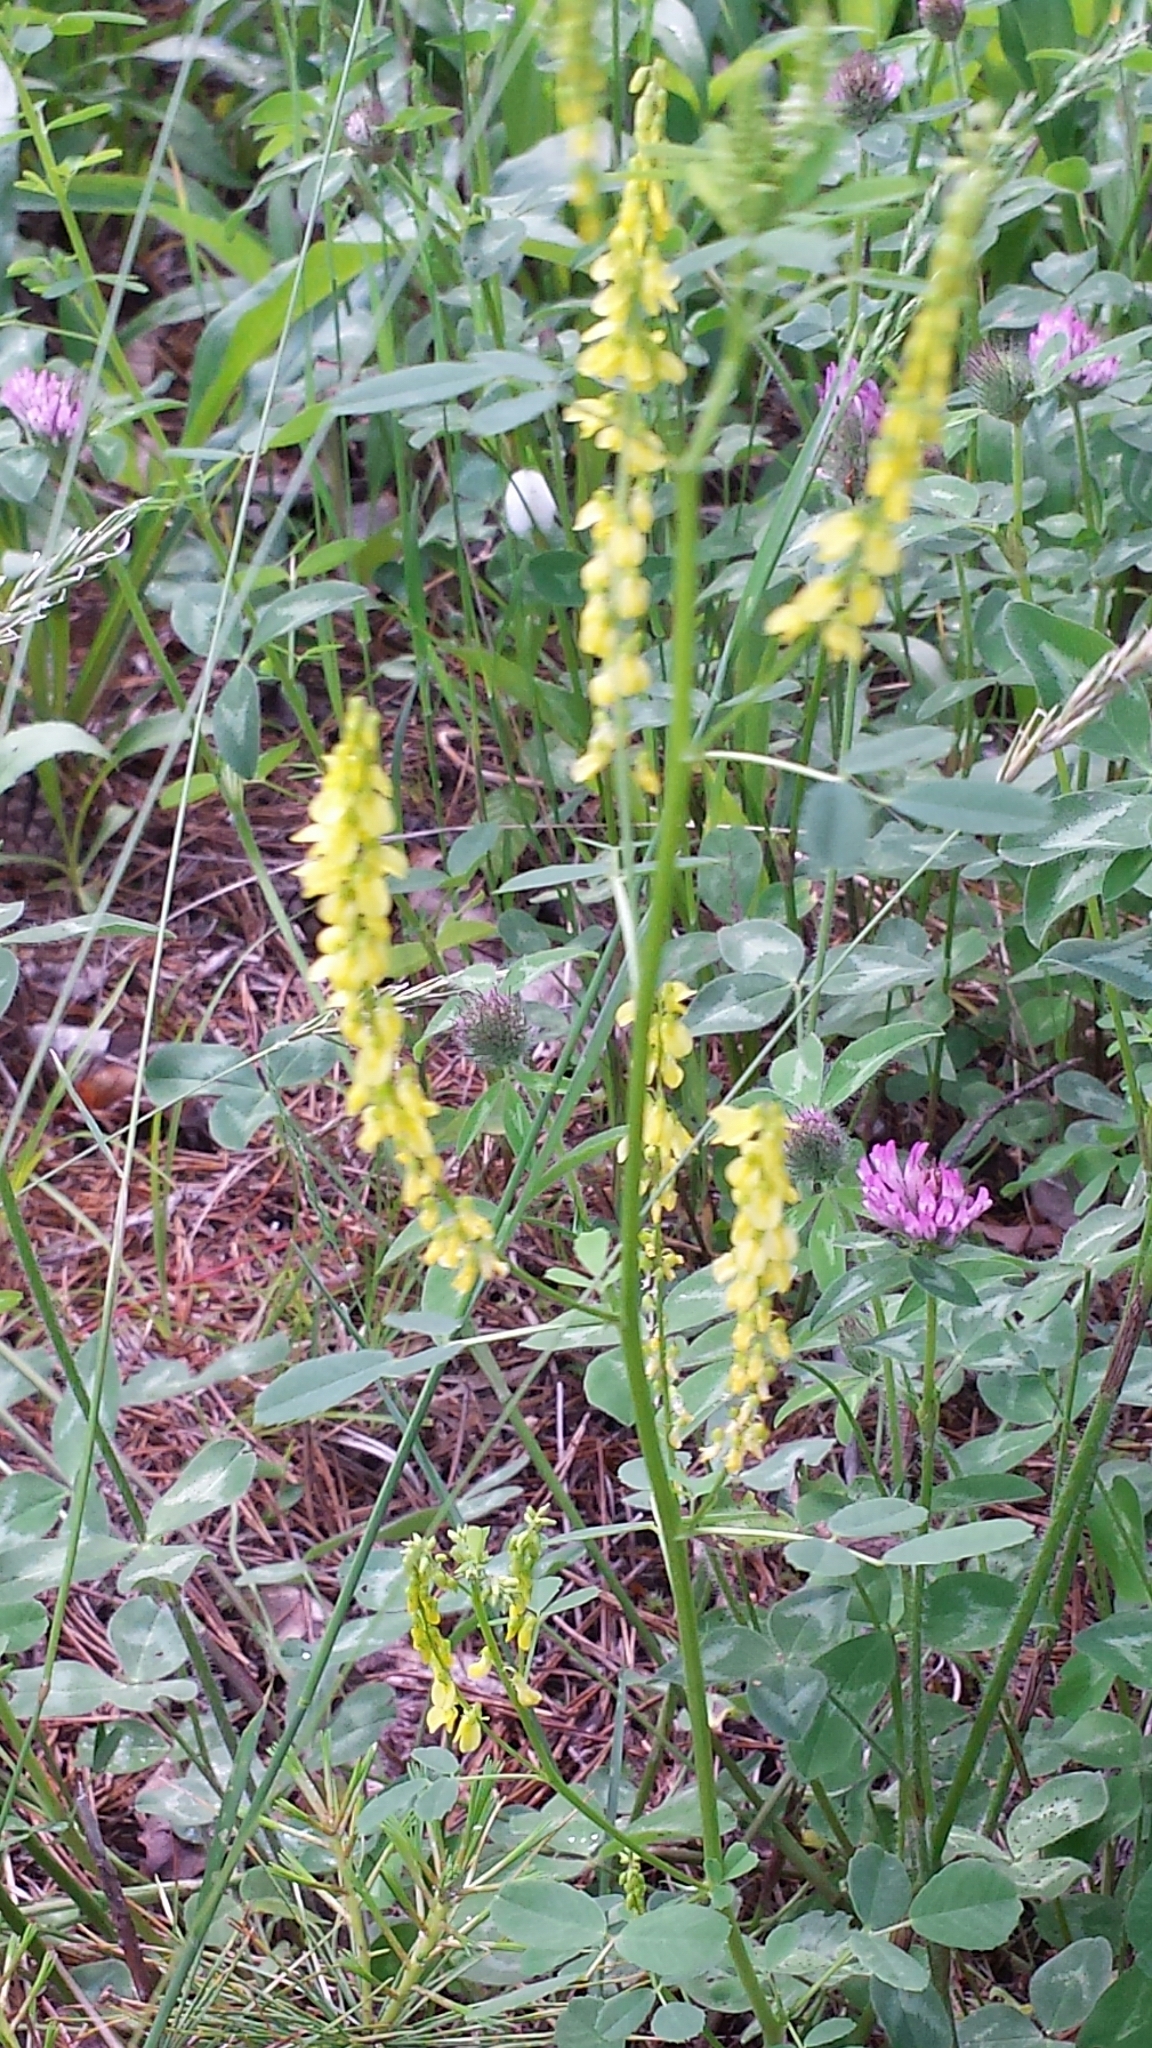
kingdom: Plantae
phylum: Tracheophyta
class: Magnoliopsida
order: Fabales
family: Fabaceae
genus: Melilotus
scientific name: Melilotus officinalis
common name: Sweetclover
